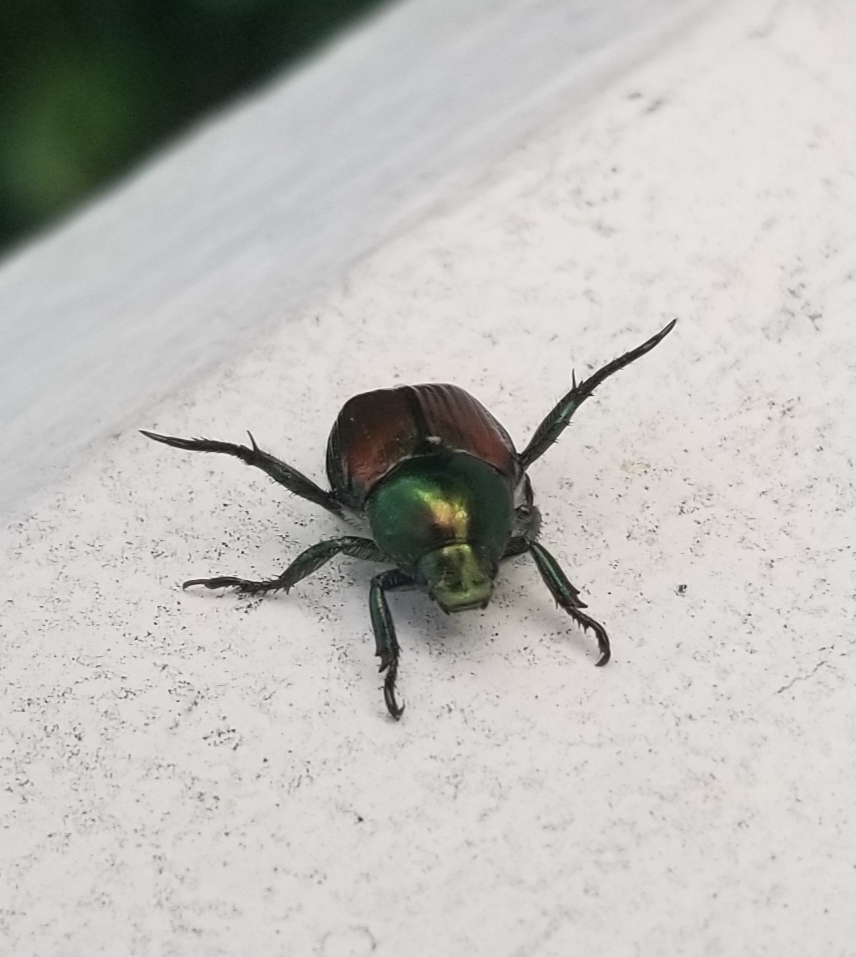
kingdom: Animalia
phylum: Arthropoda
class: Insecta
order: Coleoptera
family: Scarabaeidae
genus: Popillia
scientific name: Popillia japonica
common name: Japanese beetle
